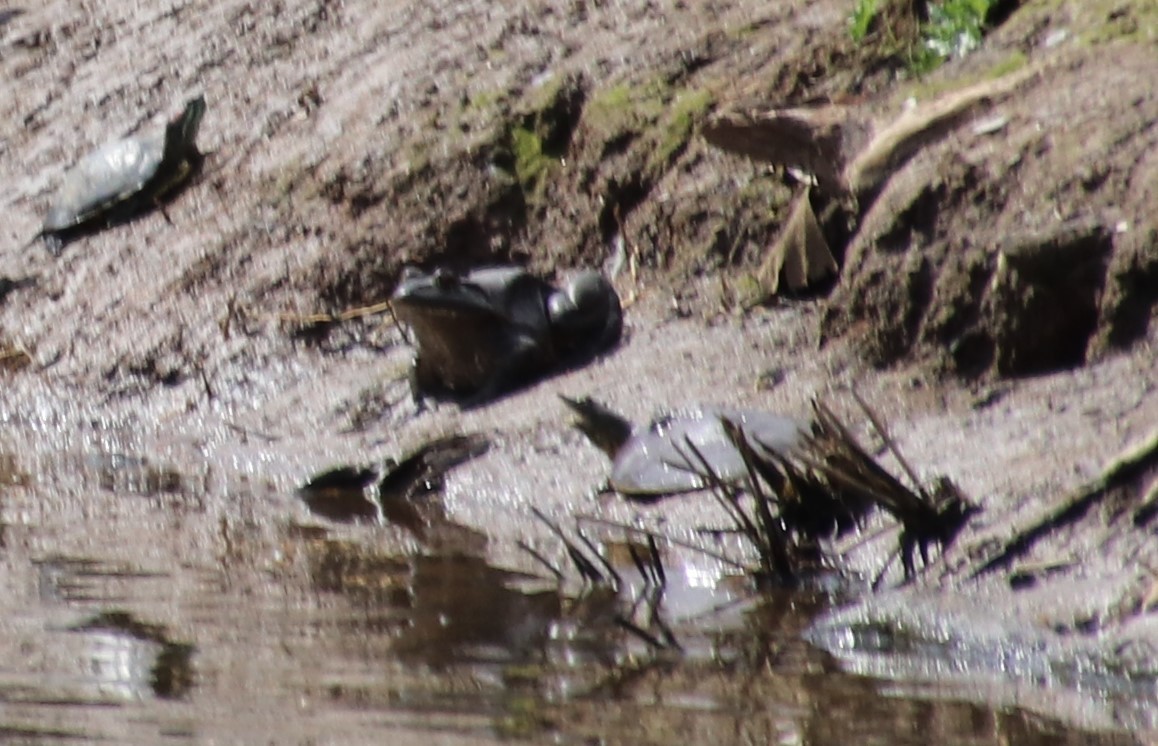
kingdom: Animalia
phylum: Chordata
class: Amphibia
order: Anura
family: Ranidae
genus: Lithobates
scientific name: Lithobates catesbeianus
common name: American bullfrog
